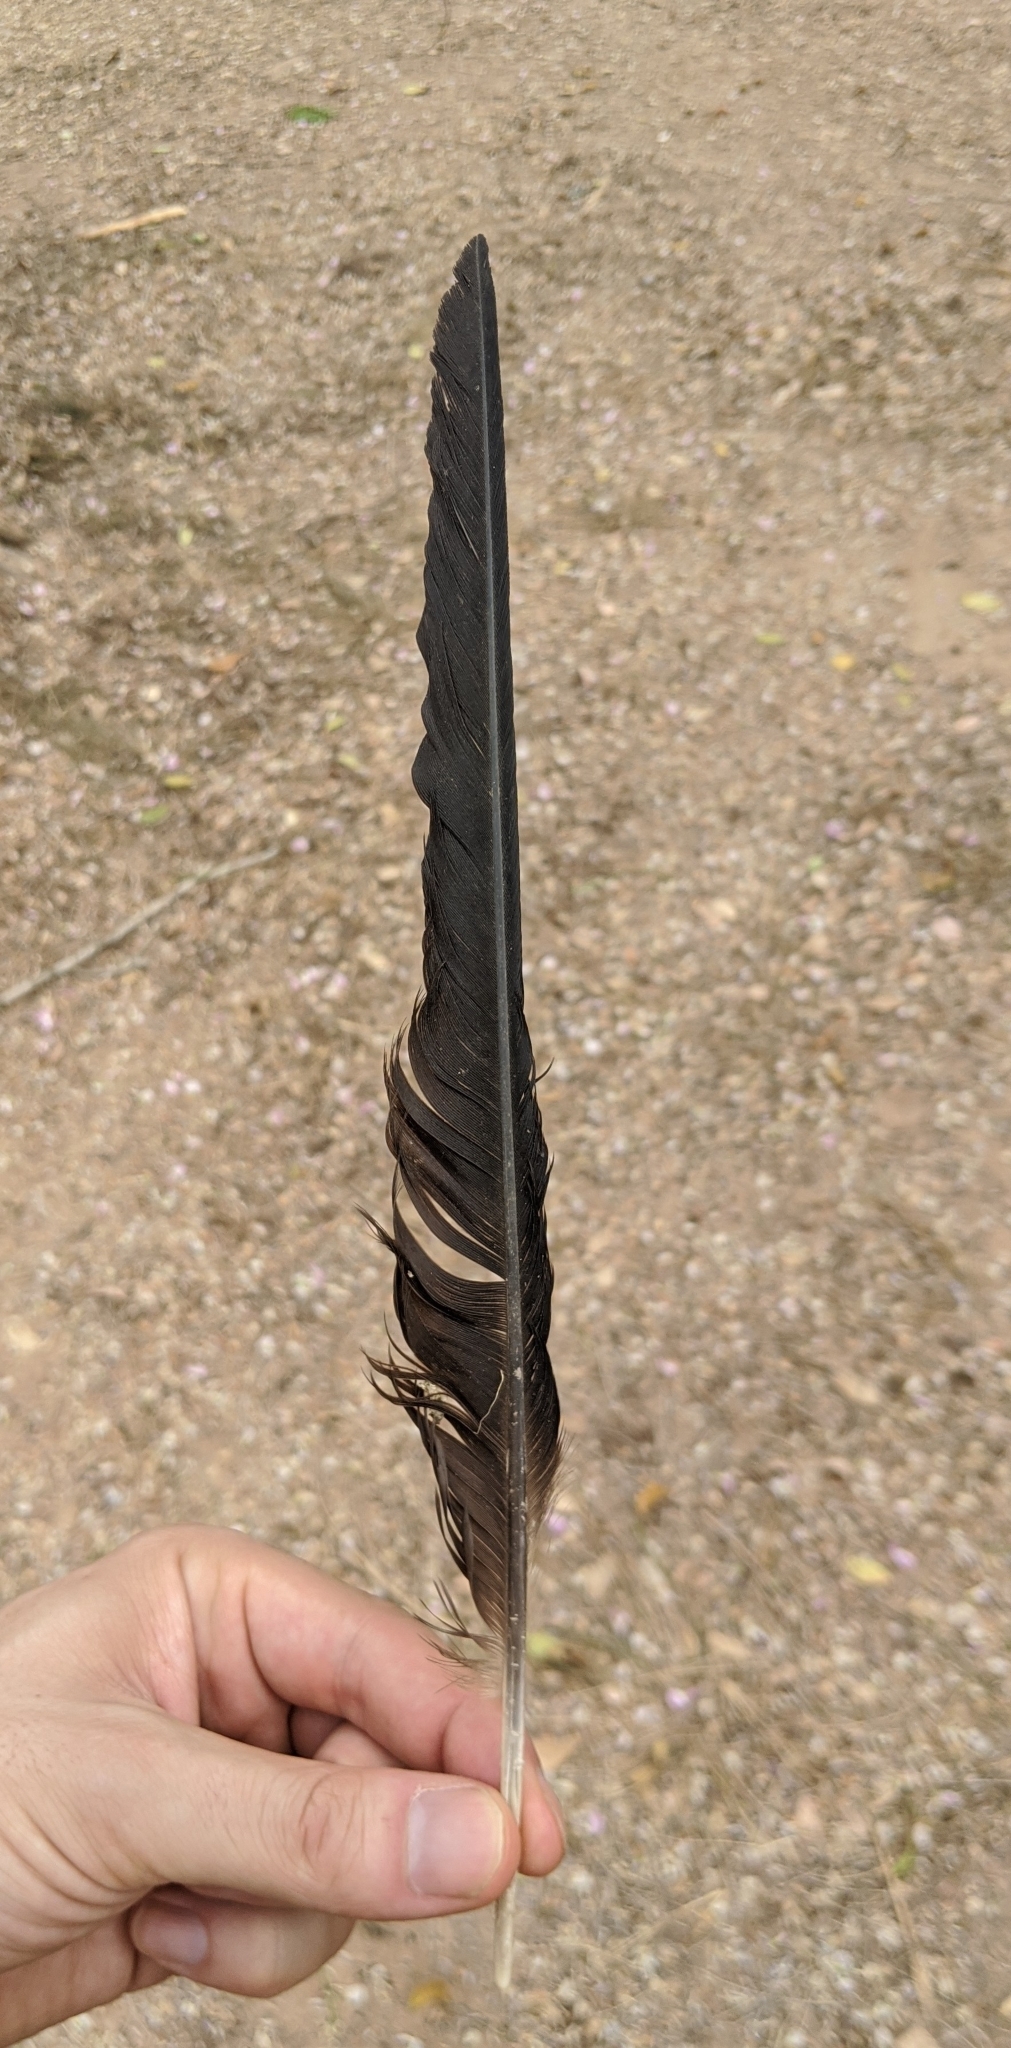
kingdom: Animalia
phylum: Chordata
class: Aves
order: Passeriformes
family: Corvidae
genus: Corvus
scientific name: Corvus albus
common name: Pied crow
